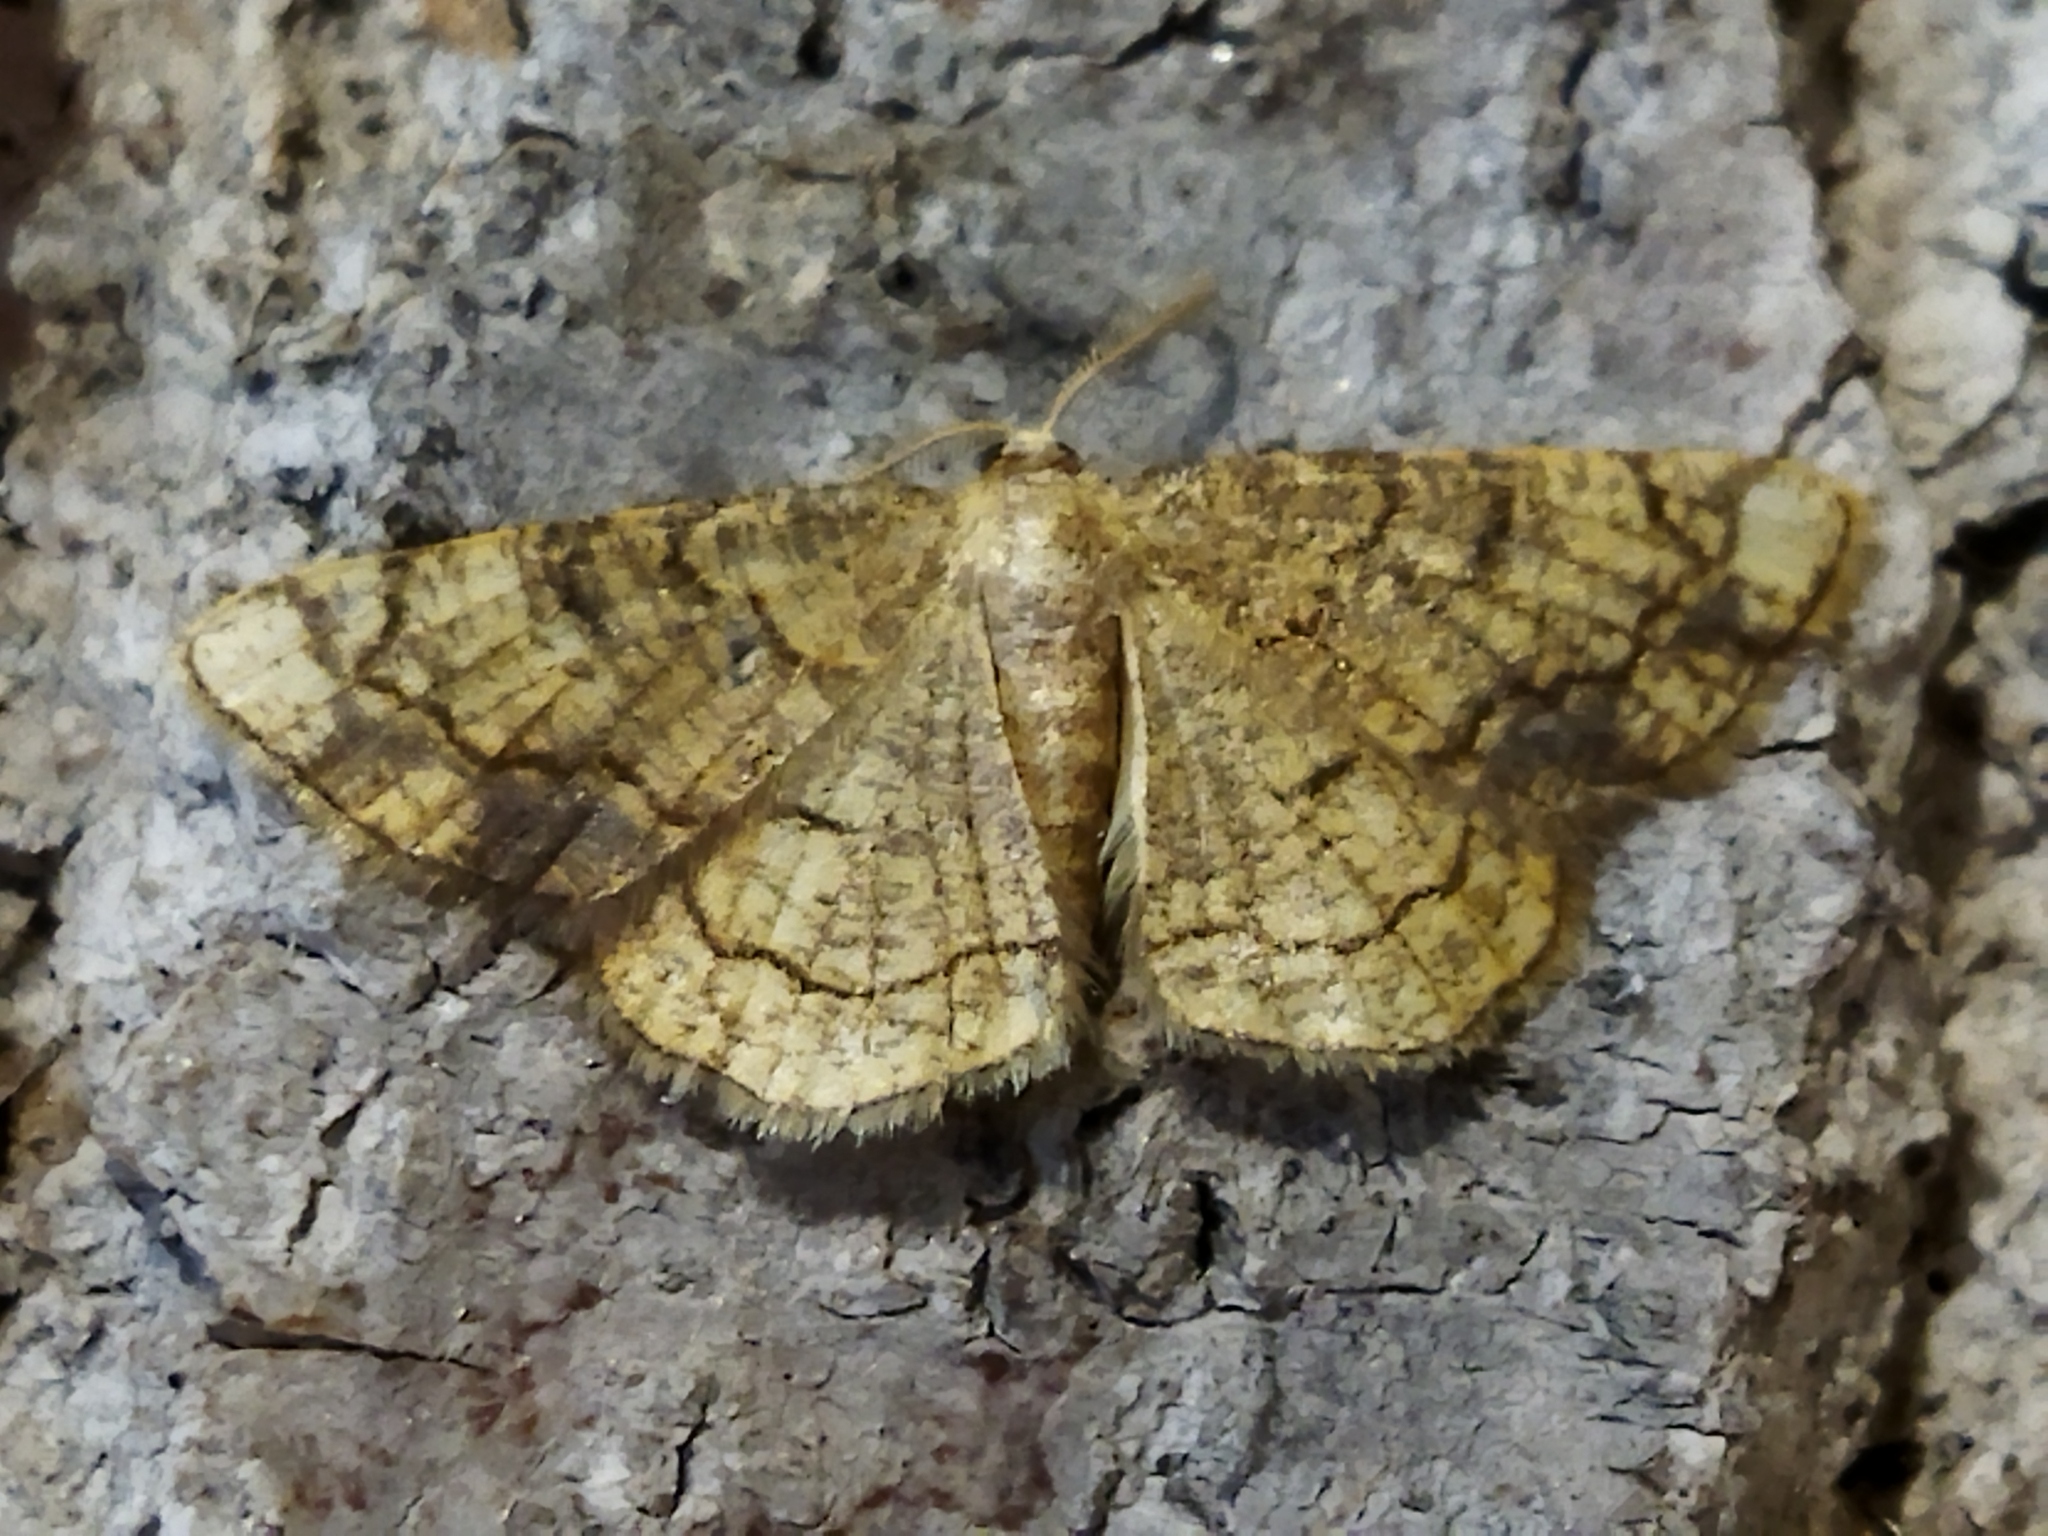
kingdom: Animalia
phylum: Arthropoda
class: Insecta
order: Lepidoptera
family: Geometridae
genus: Stegania
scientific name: Stegania dilectaria
